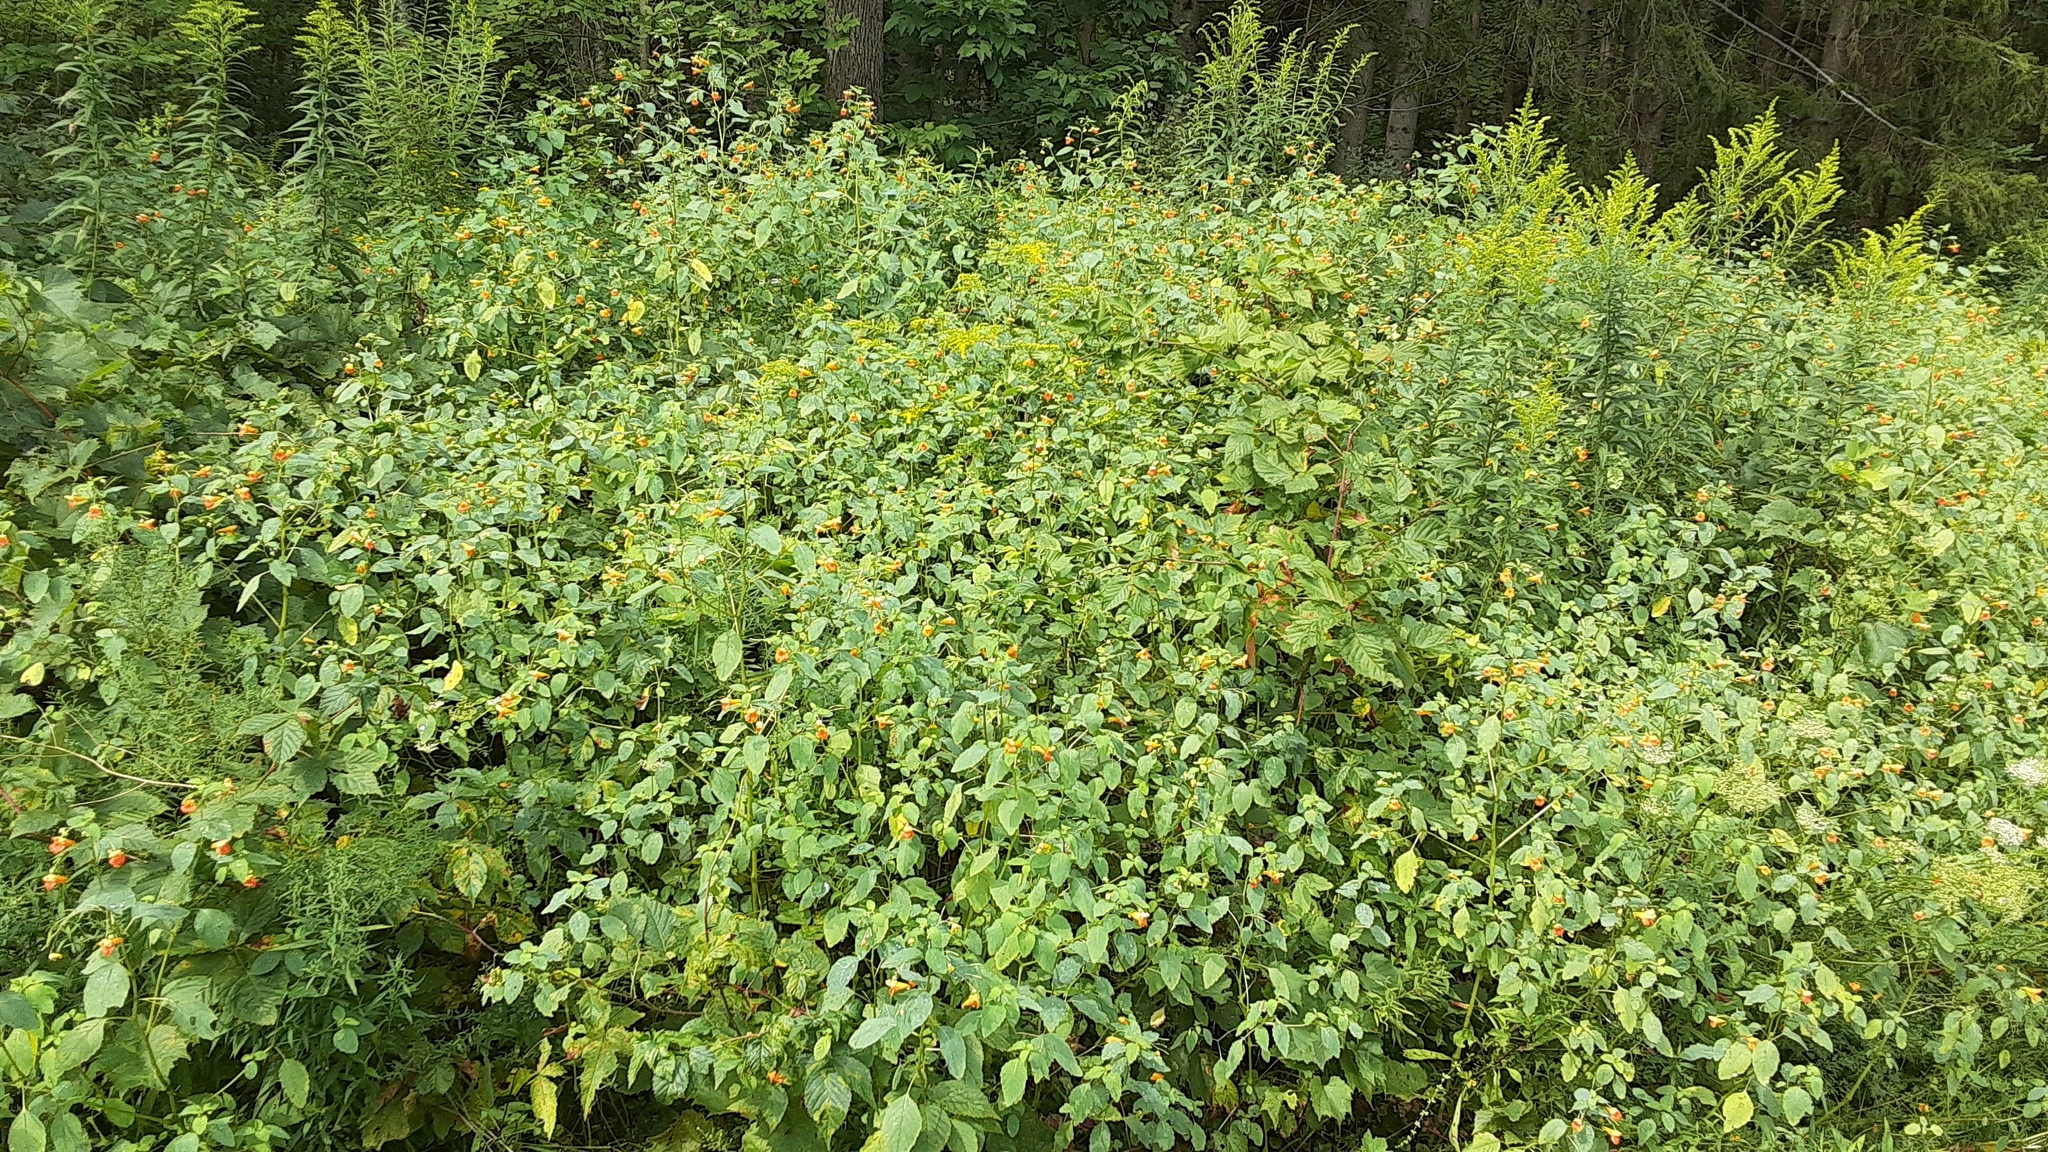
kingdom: Plantae
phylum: Tracheophyta
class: Magnoliopsida
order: Ericales
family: Balsaminaceae
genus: Impatiens
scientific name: Impatiens capensis
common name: Orange balsam
